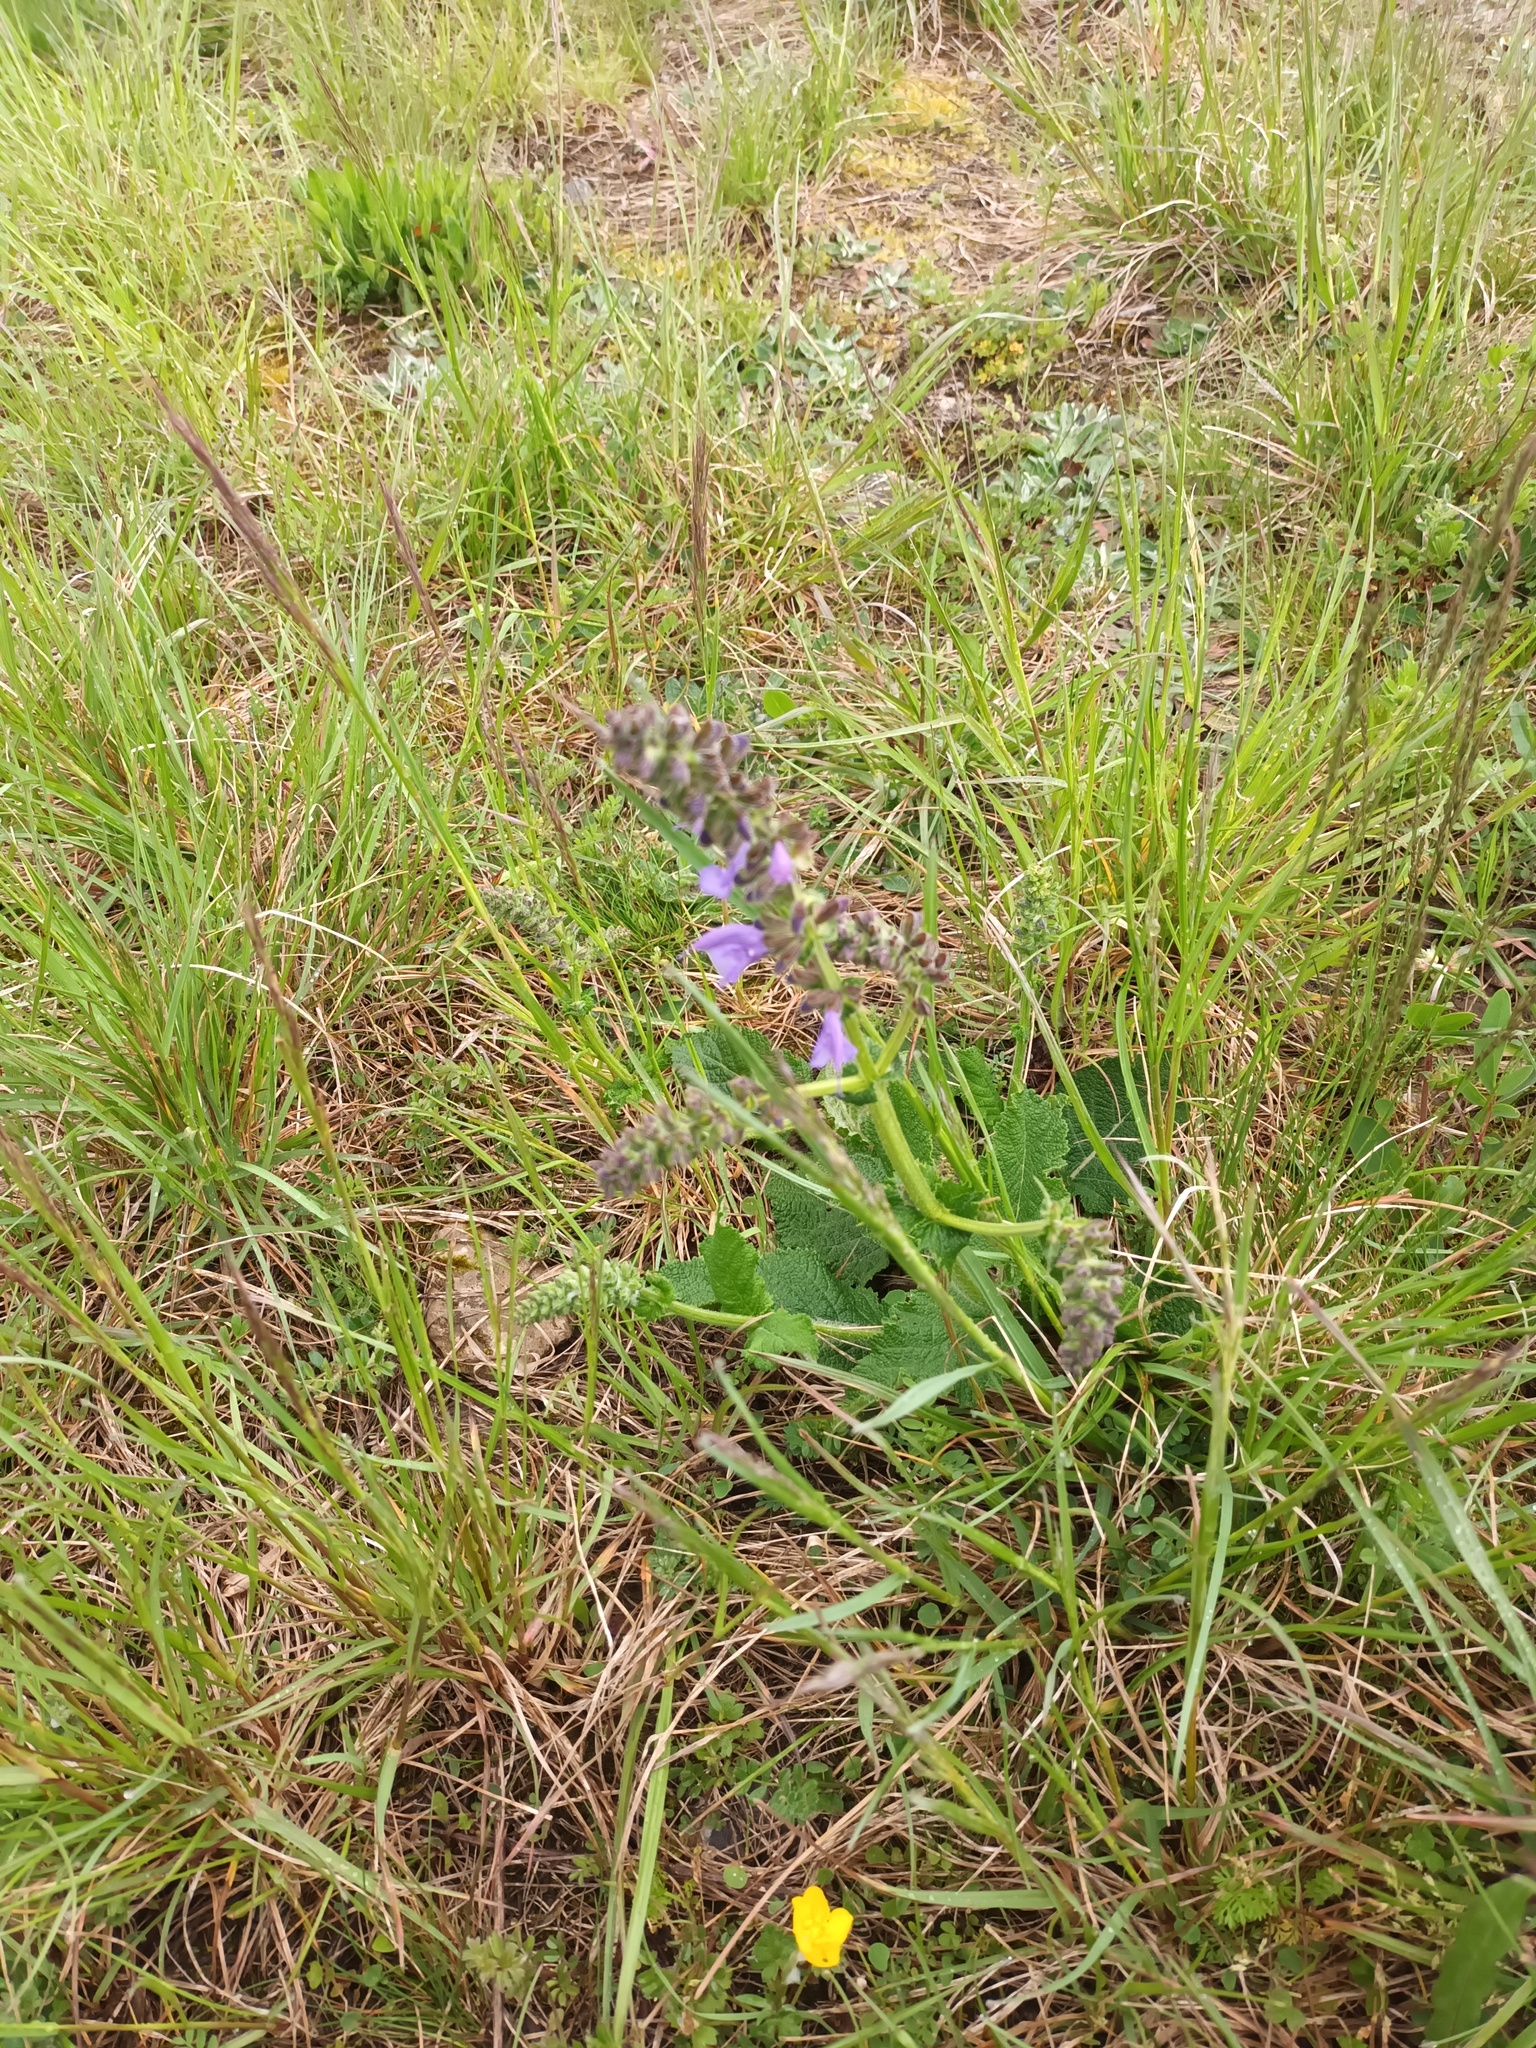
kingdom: Plantae
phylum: Tracheophyta
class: Magnoliopsida
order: Lamiales
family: Lamiaceae
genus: Salvia
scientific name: Salvia pratensis
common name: Meadow sage
